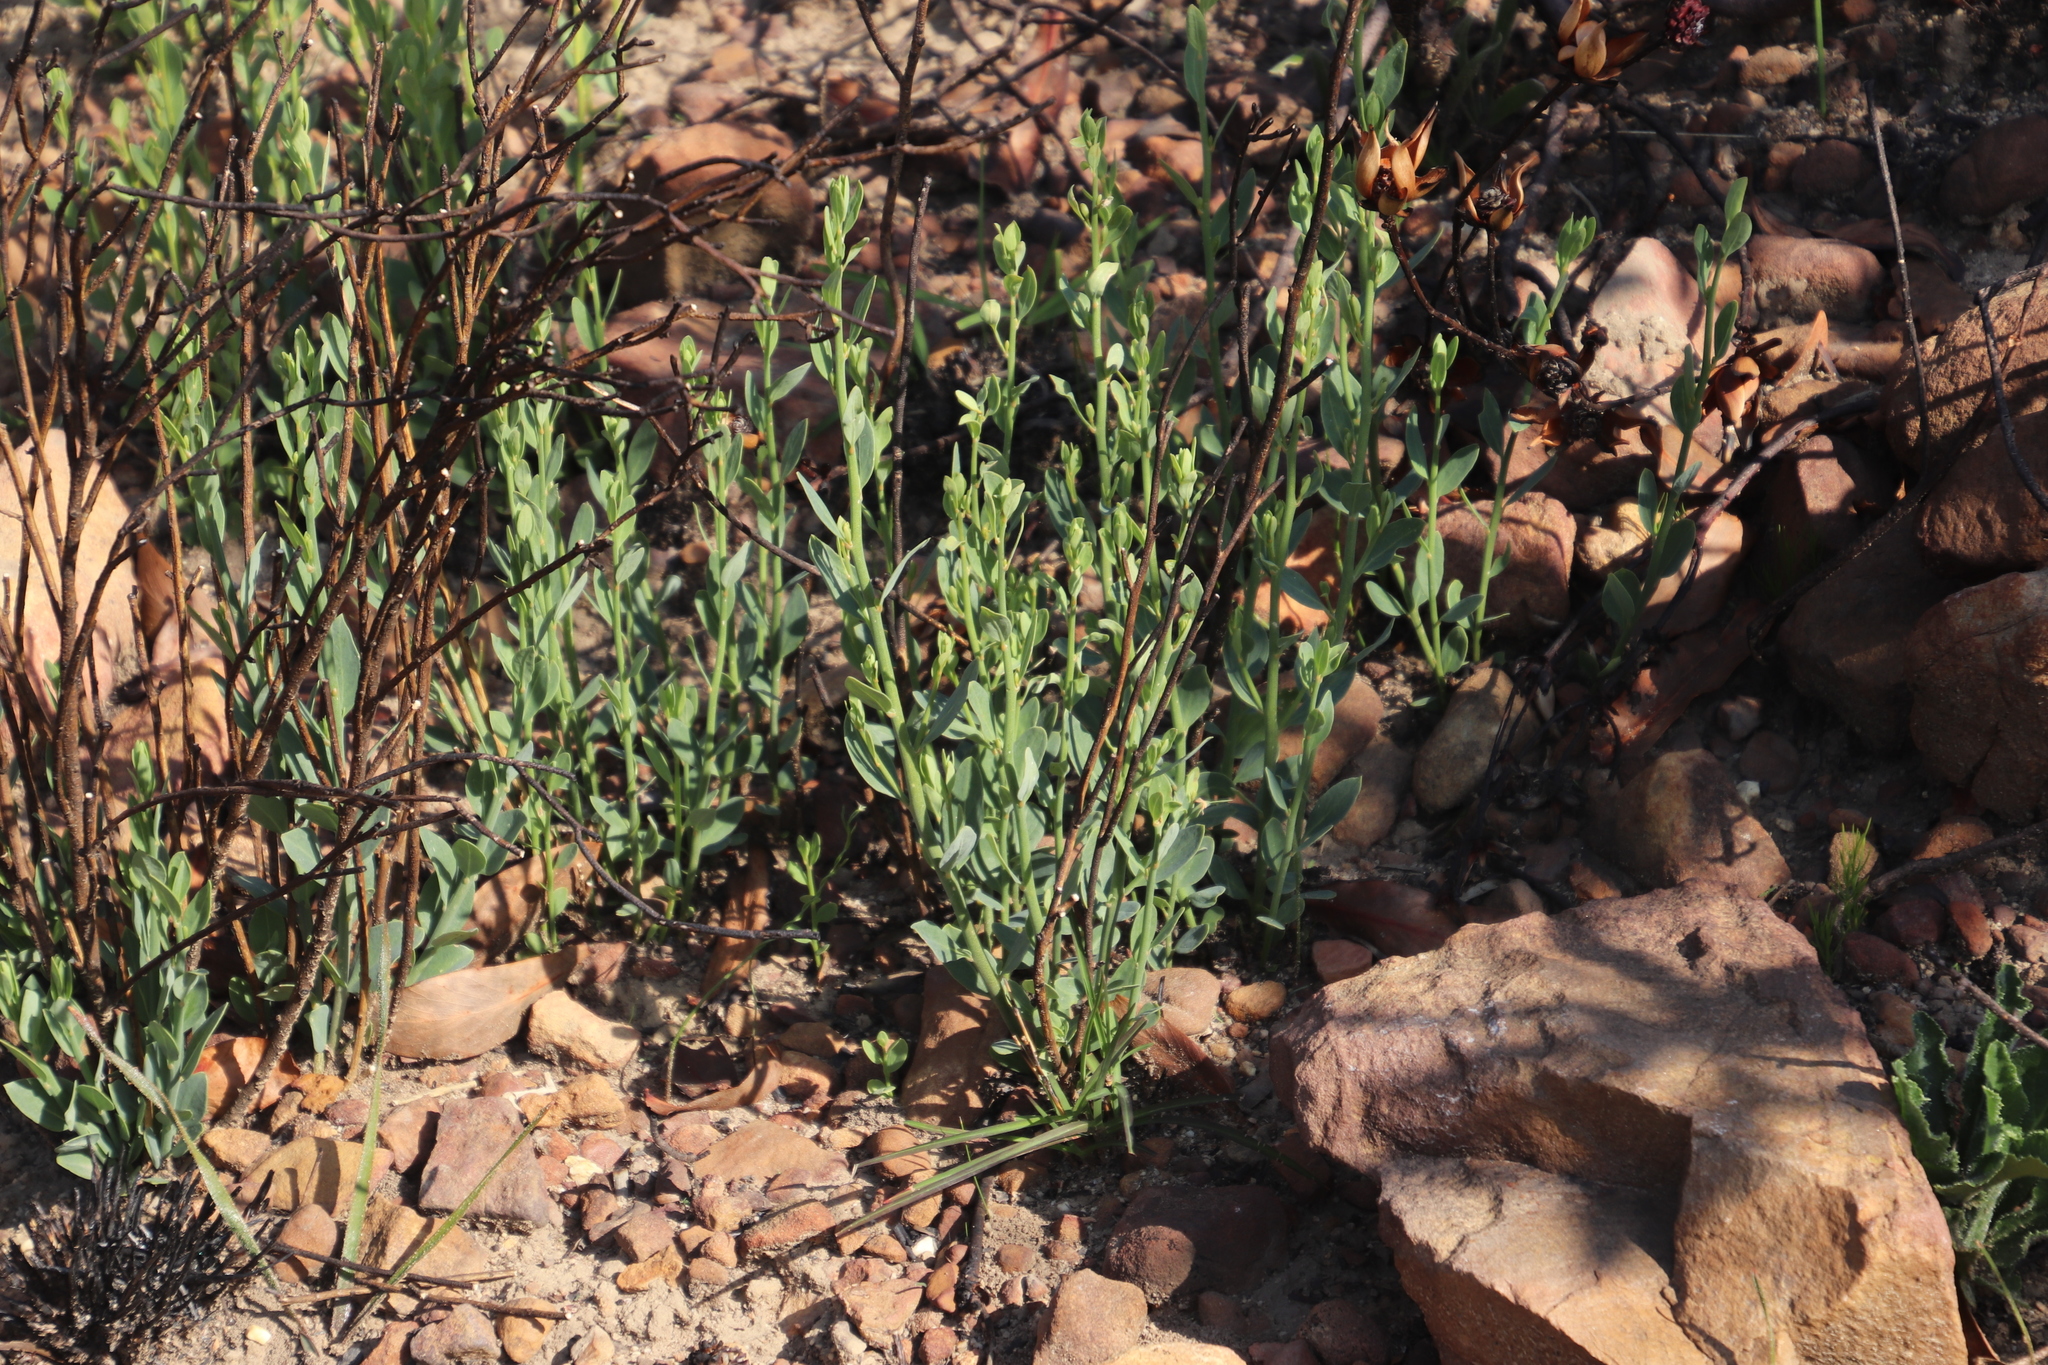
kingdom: Plantae
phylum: Tracheophyta
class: Magnoliopsida
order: Solanales
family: Montiniaceae
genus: Montinia
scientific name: Montinia caryophyllacea
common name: Wild clove-bush
